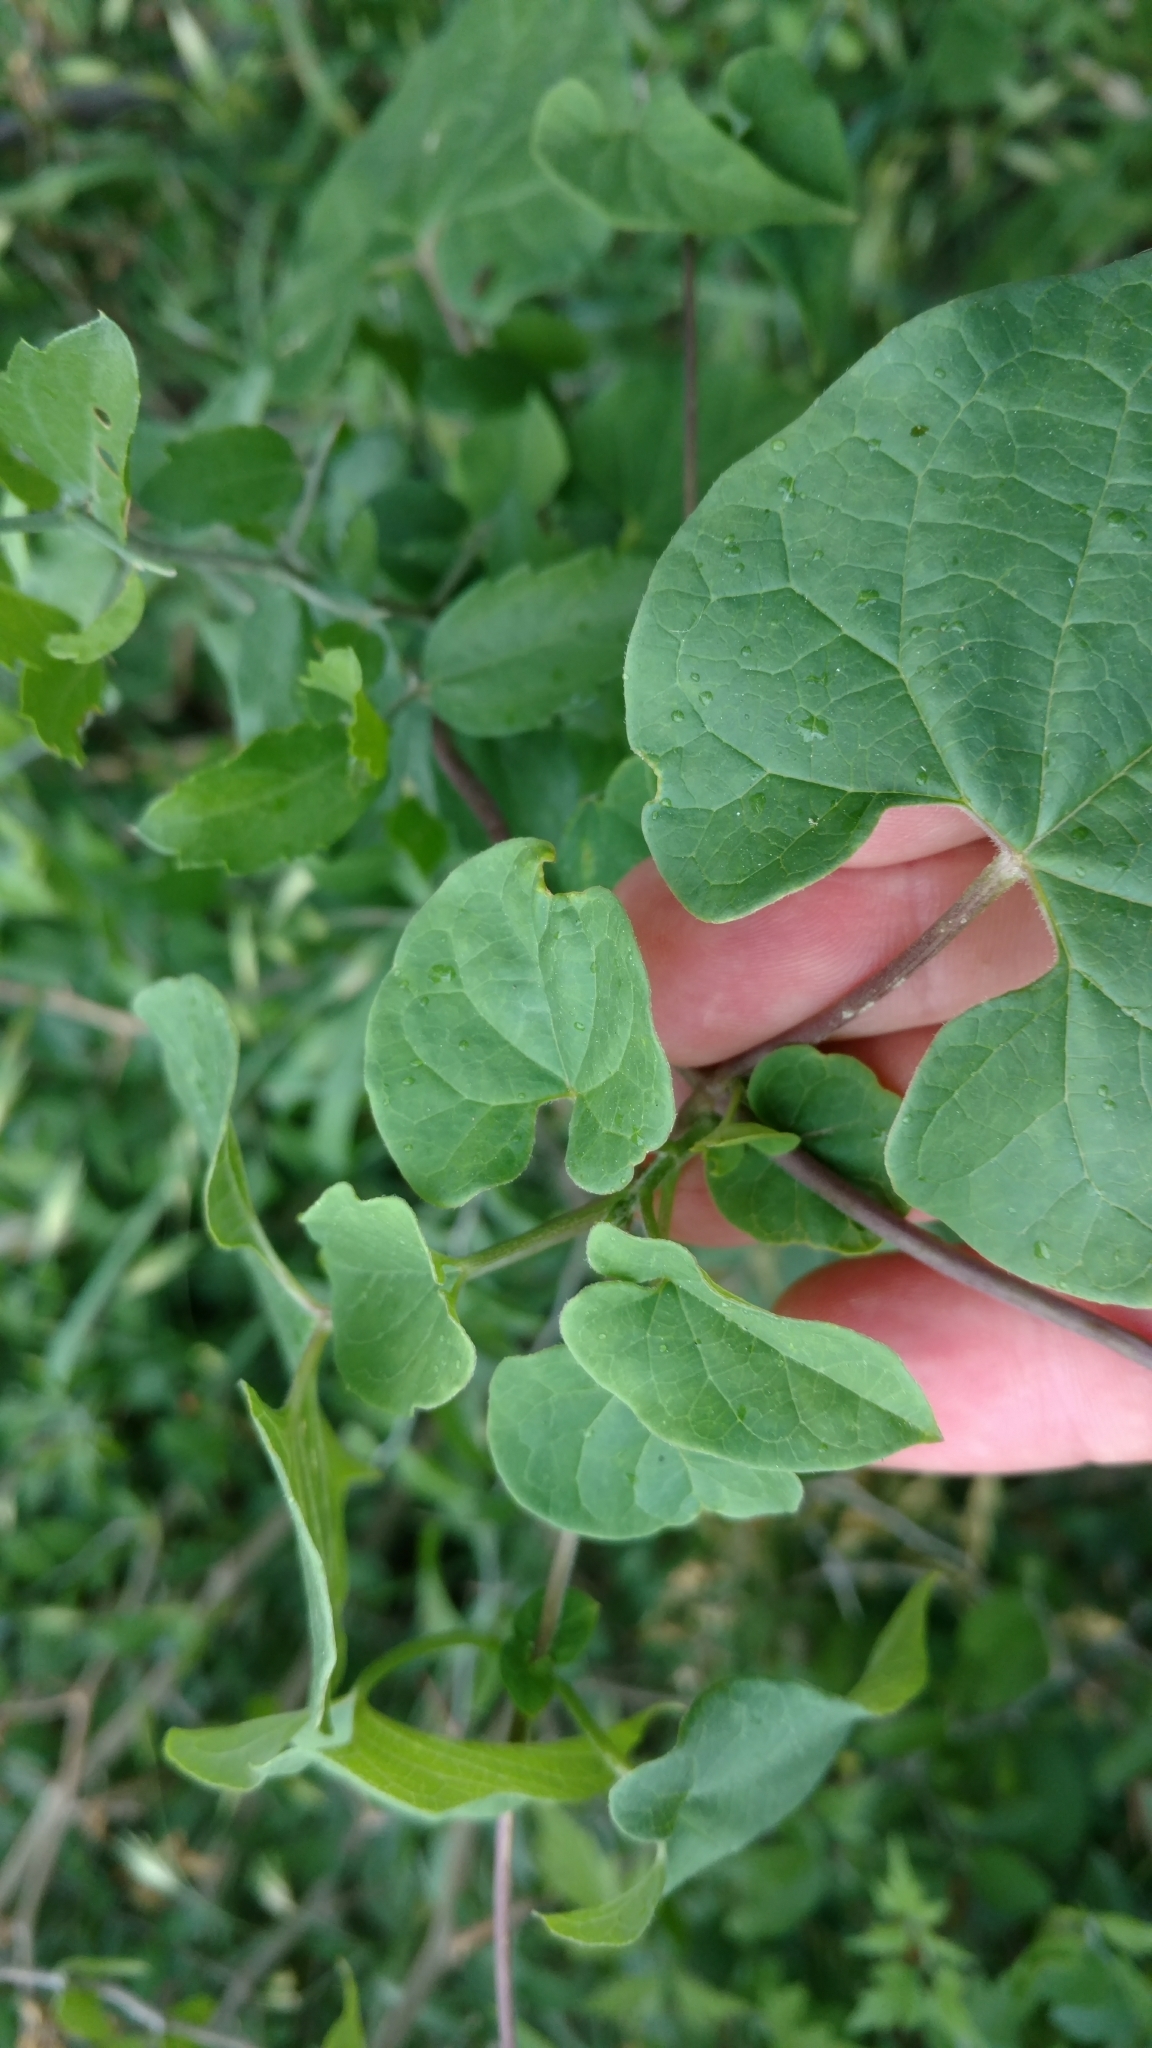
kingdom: Plantae
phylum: Tracheophyta
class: Magnoliopsida
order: Gentianales
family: Apocynaceae
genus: Cynanchum
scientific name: Cynanchum racemosum
